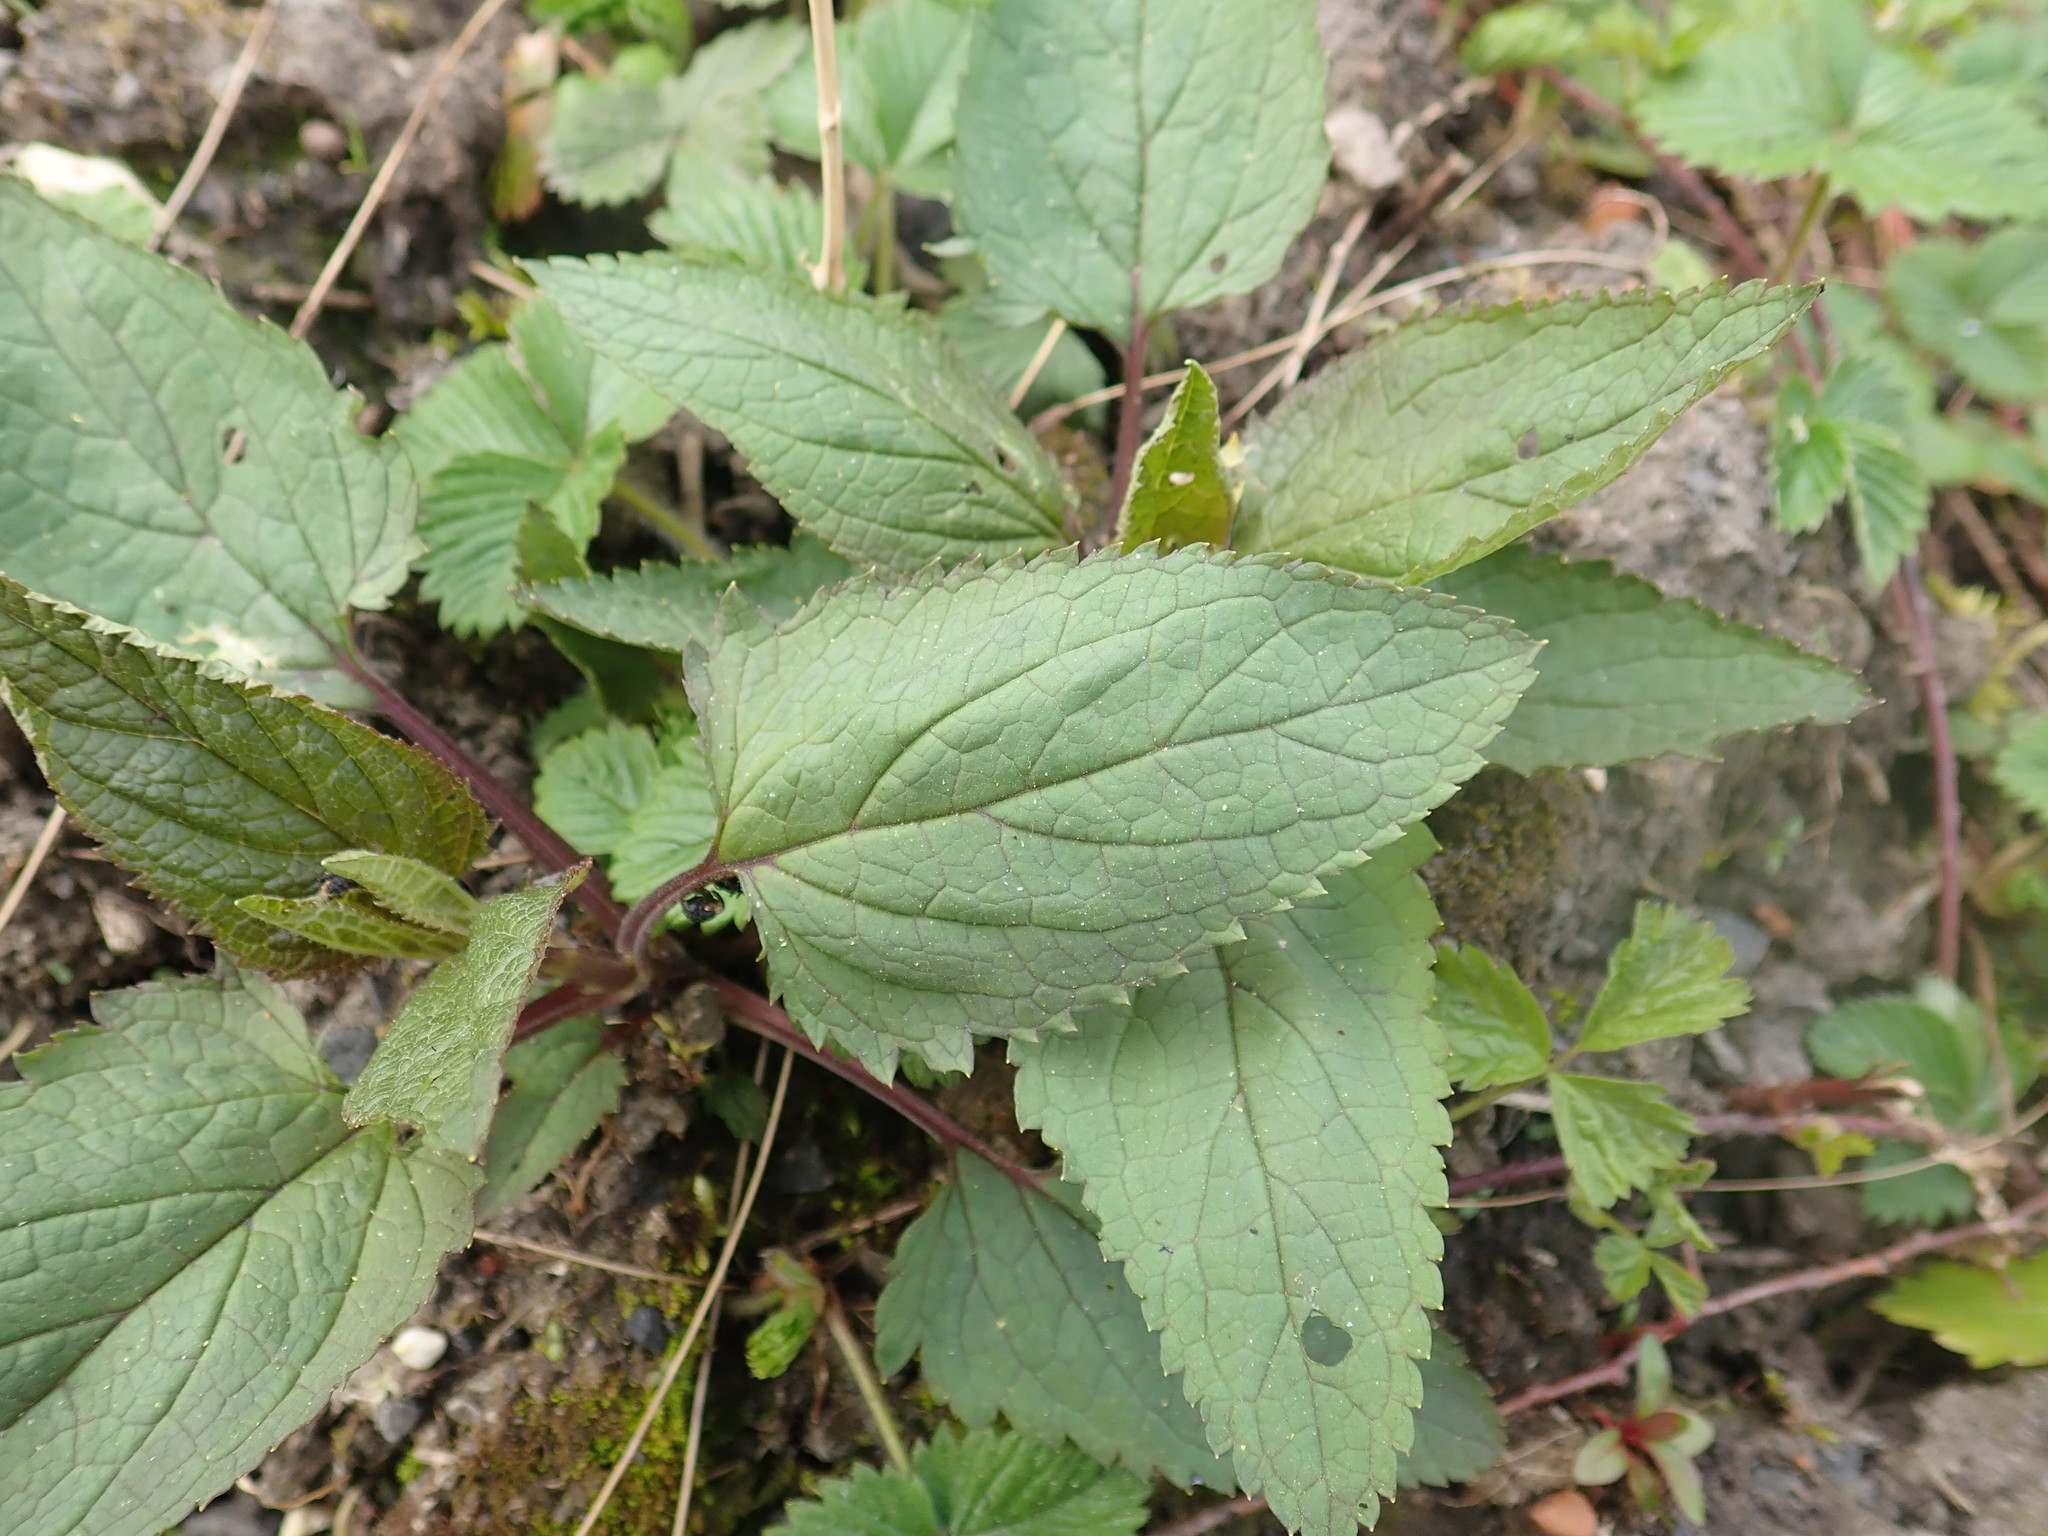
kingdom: Plantae
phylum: Tracheophyta
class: Magnoliopsida
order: Lamiales
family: Scrophulariaceae
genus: Scrophularia
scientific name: Scrophularia nodosa
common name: Common figwort
